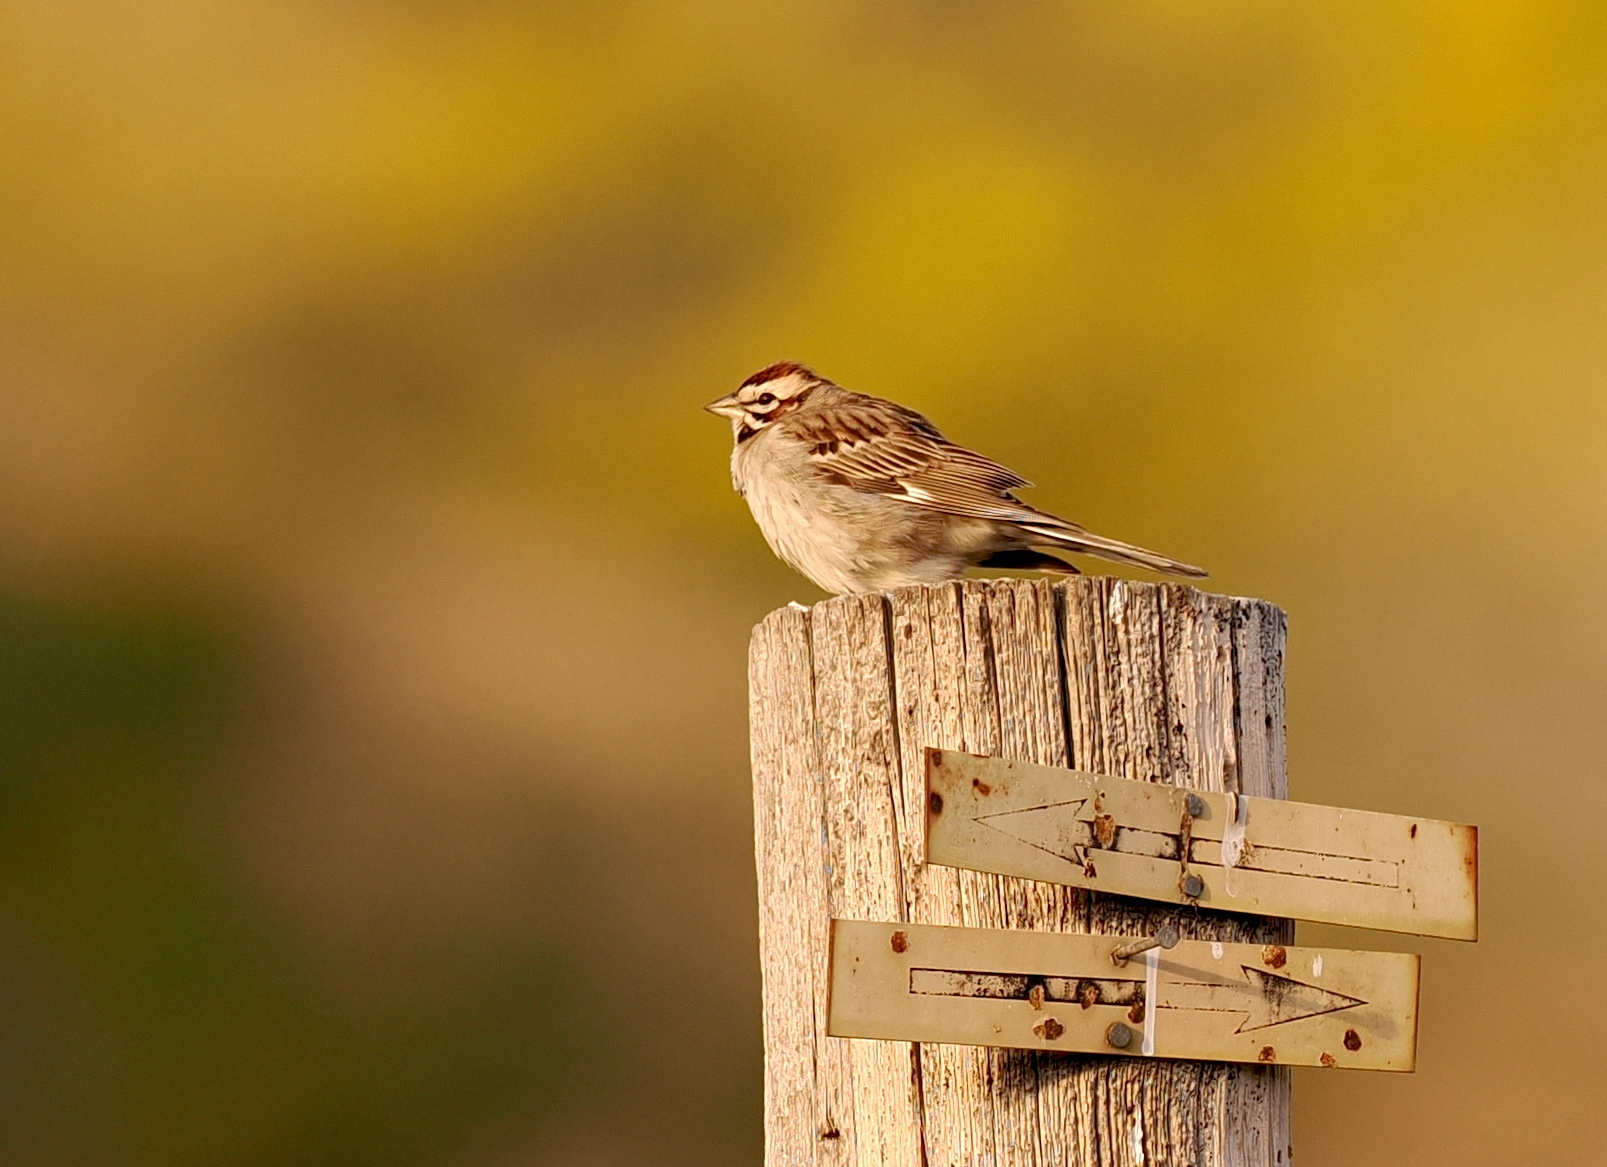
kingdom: Animalia
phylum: Chordata
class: Aves
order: Passeriformes
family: Passerellidae
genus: Chondestes
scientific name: Chondestes grammacus
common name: Lark sparrow
